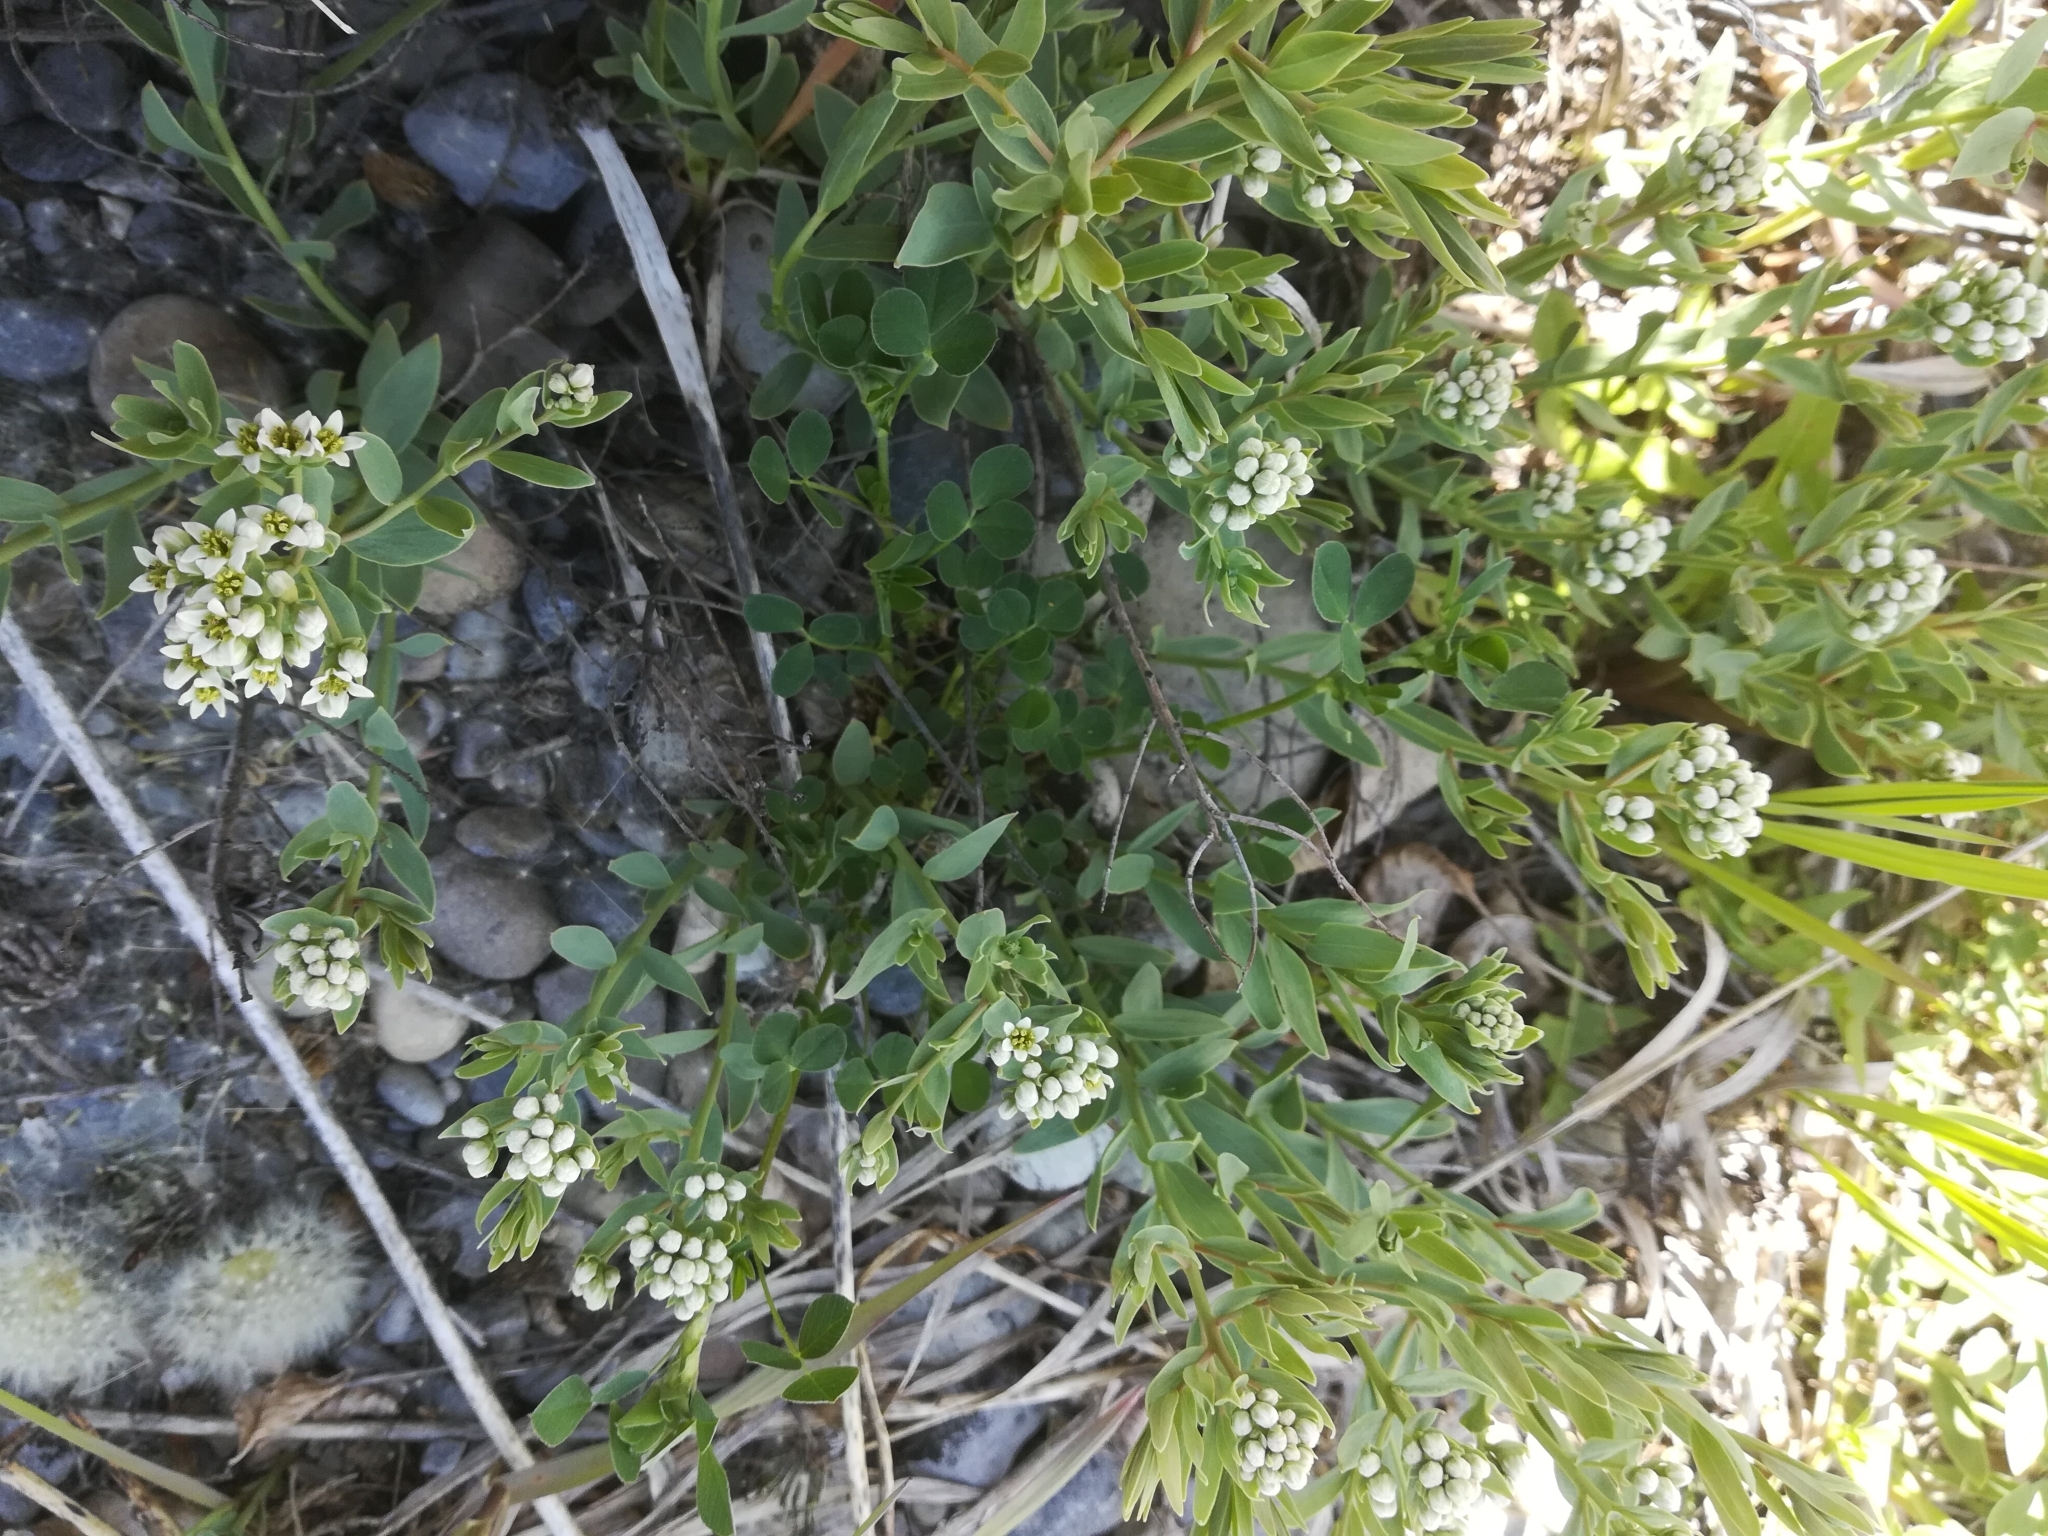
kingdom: Plantae
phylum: Tracheophyta
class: Magnoliopsida
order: Santalales
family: Comandraceae
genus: Comandra
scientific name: Comandra umbellata
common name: Bastard toadflax
